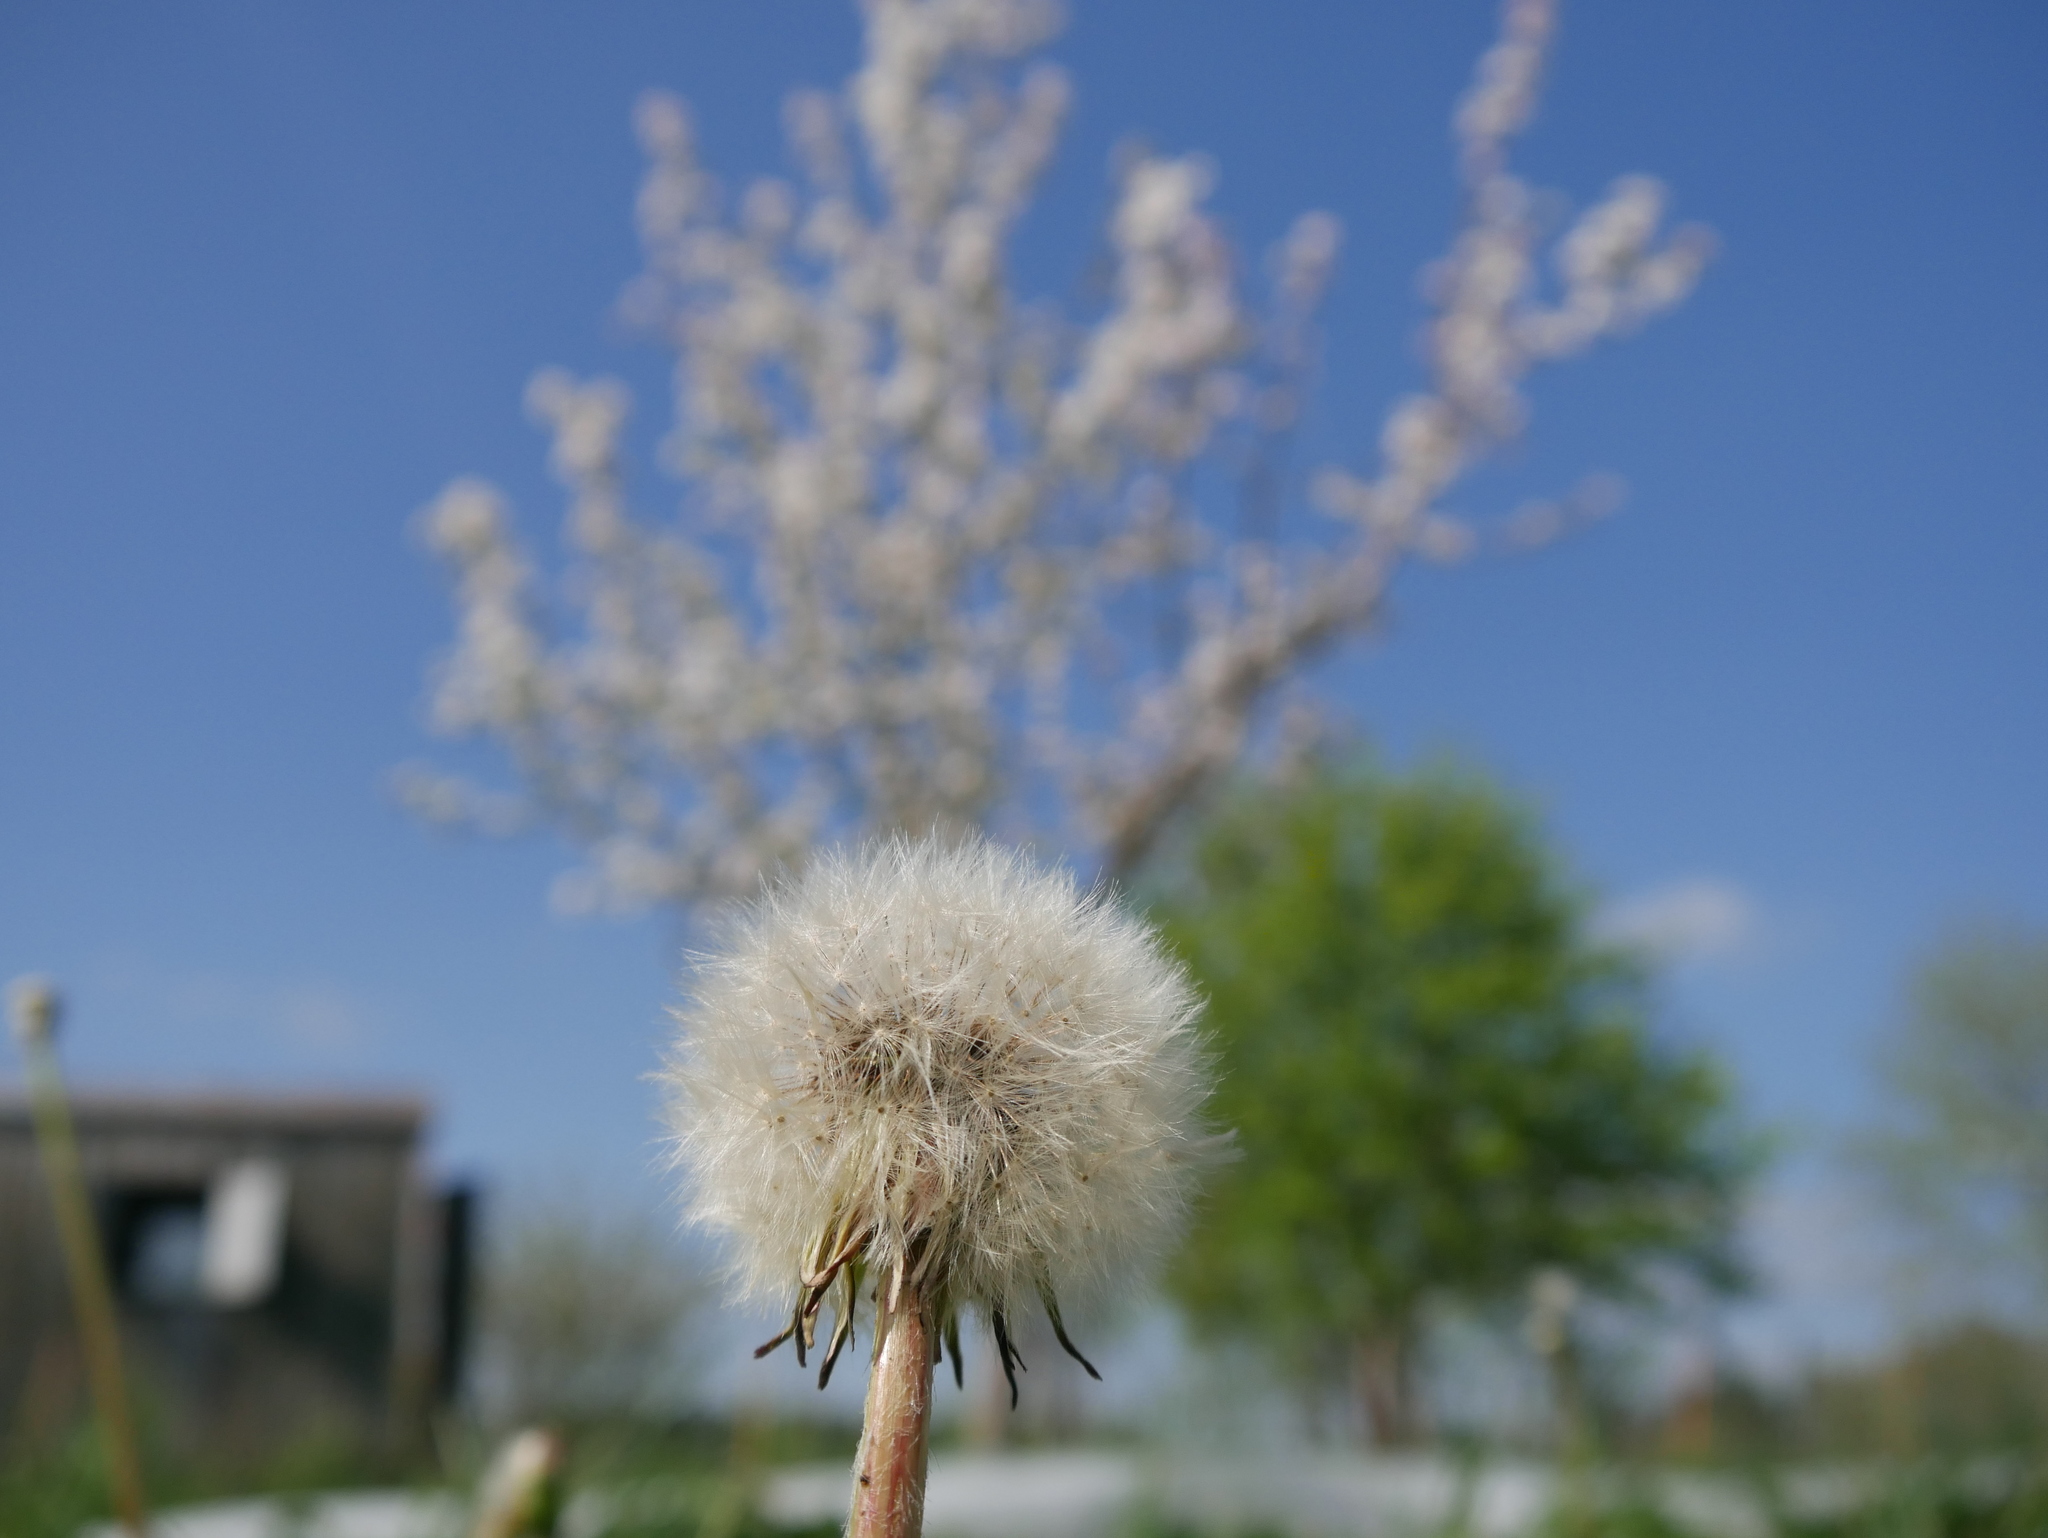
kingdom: Plantae
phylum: Tracheophyta
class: Magnoliopsida
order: Asterales
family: Asteraceae
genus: Taraxacum
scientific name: Taraxacum officinale
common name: Common dandelion
